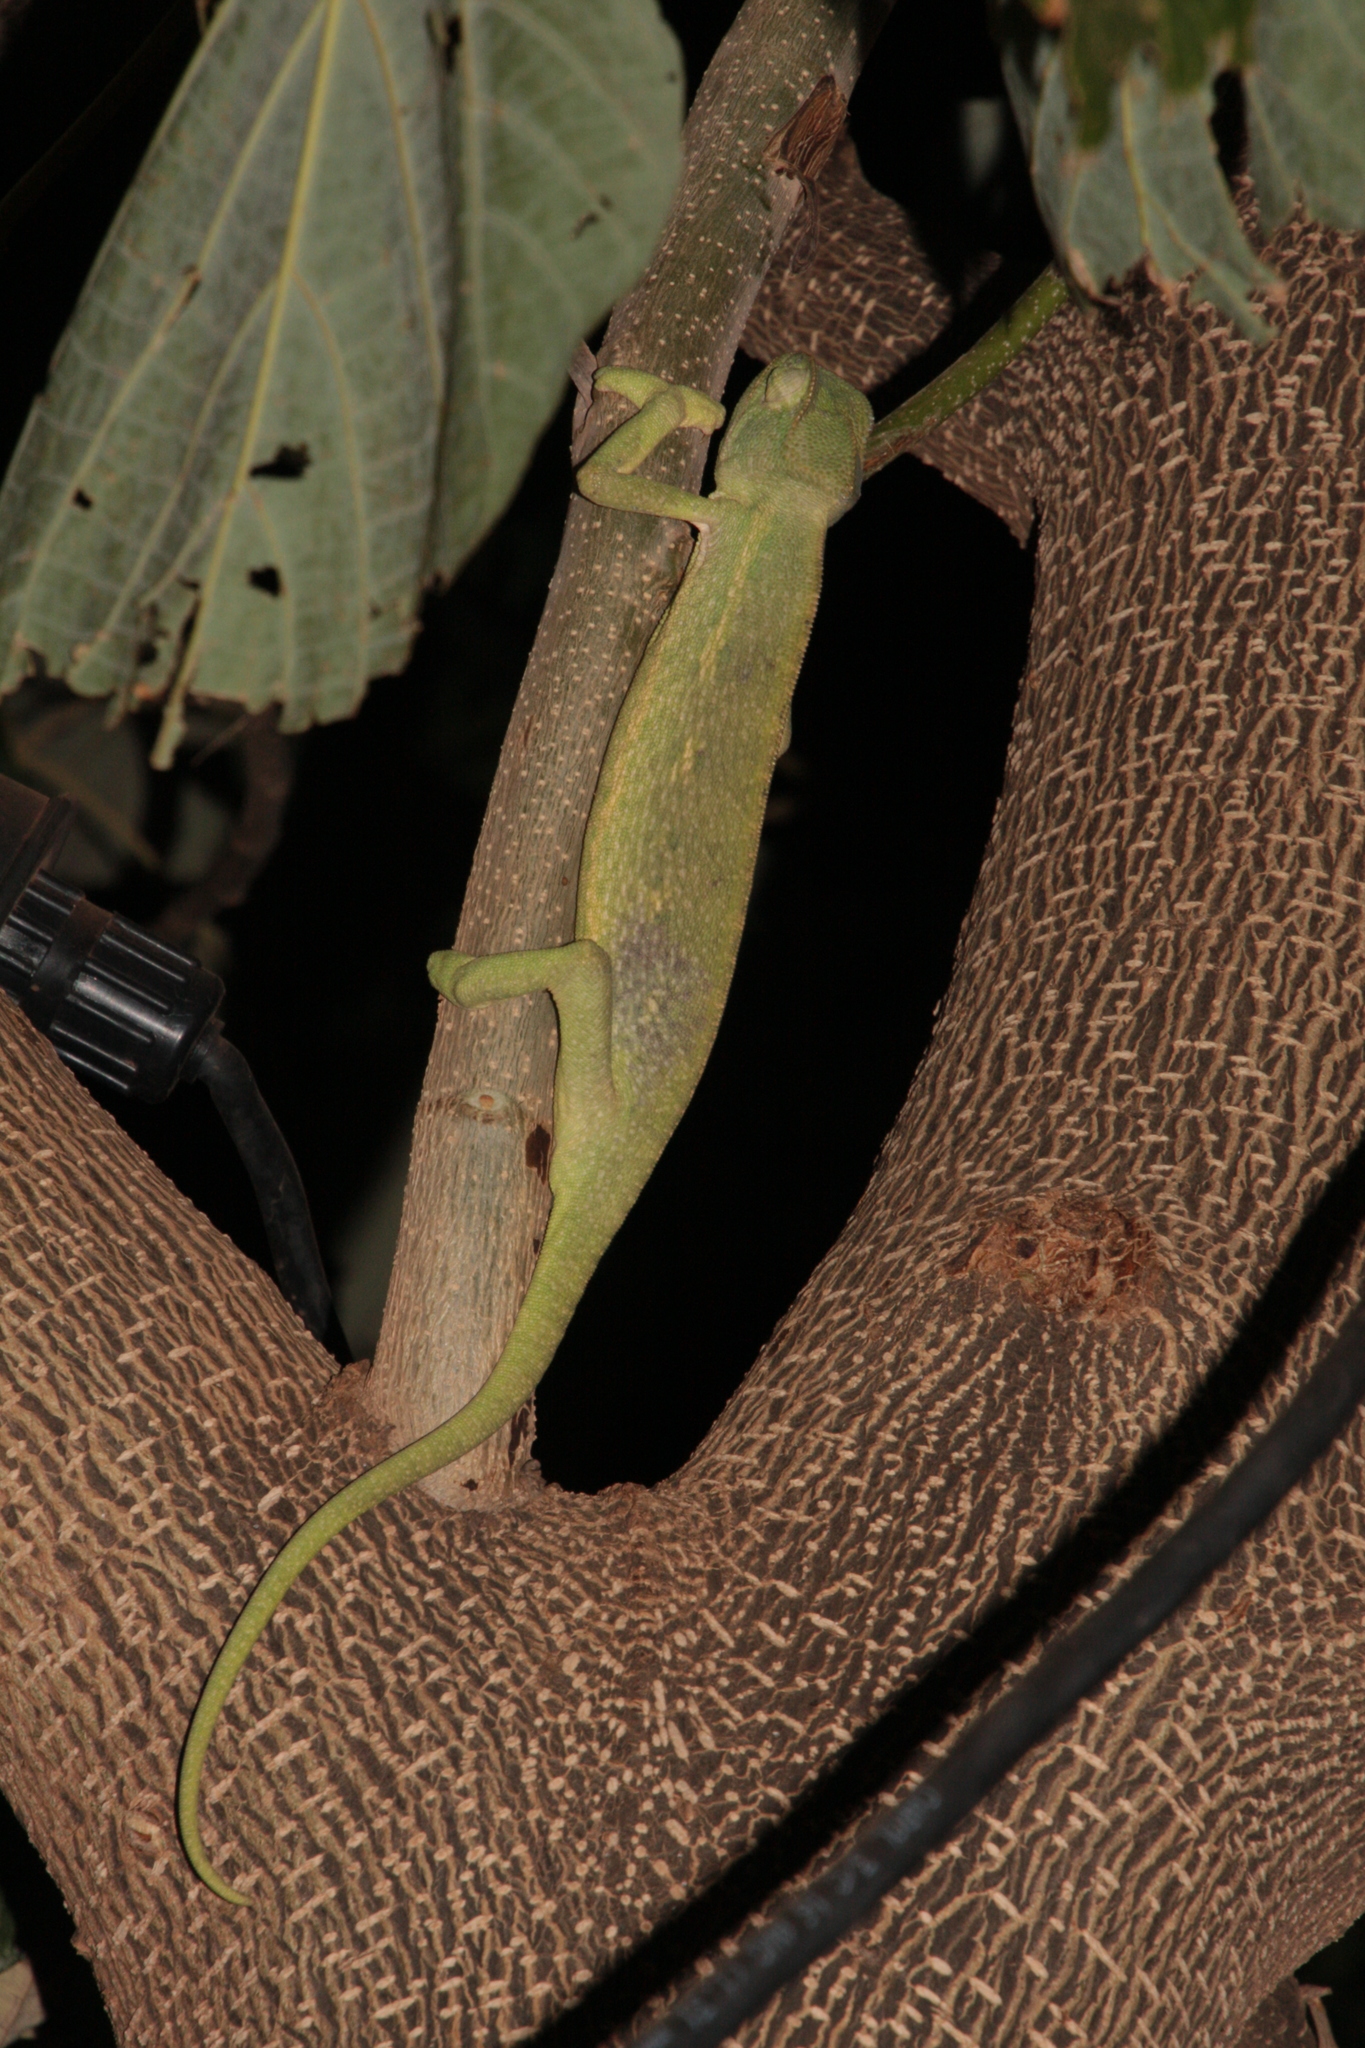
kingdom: Animalia
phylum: Chordata
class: Squamata
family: Chamaeleonidae
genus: Chamaeleo
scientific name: Chamaeleo africanus
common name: African chameleon
